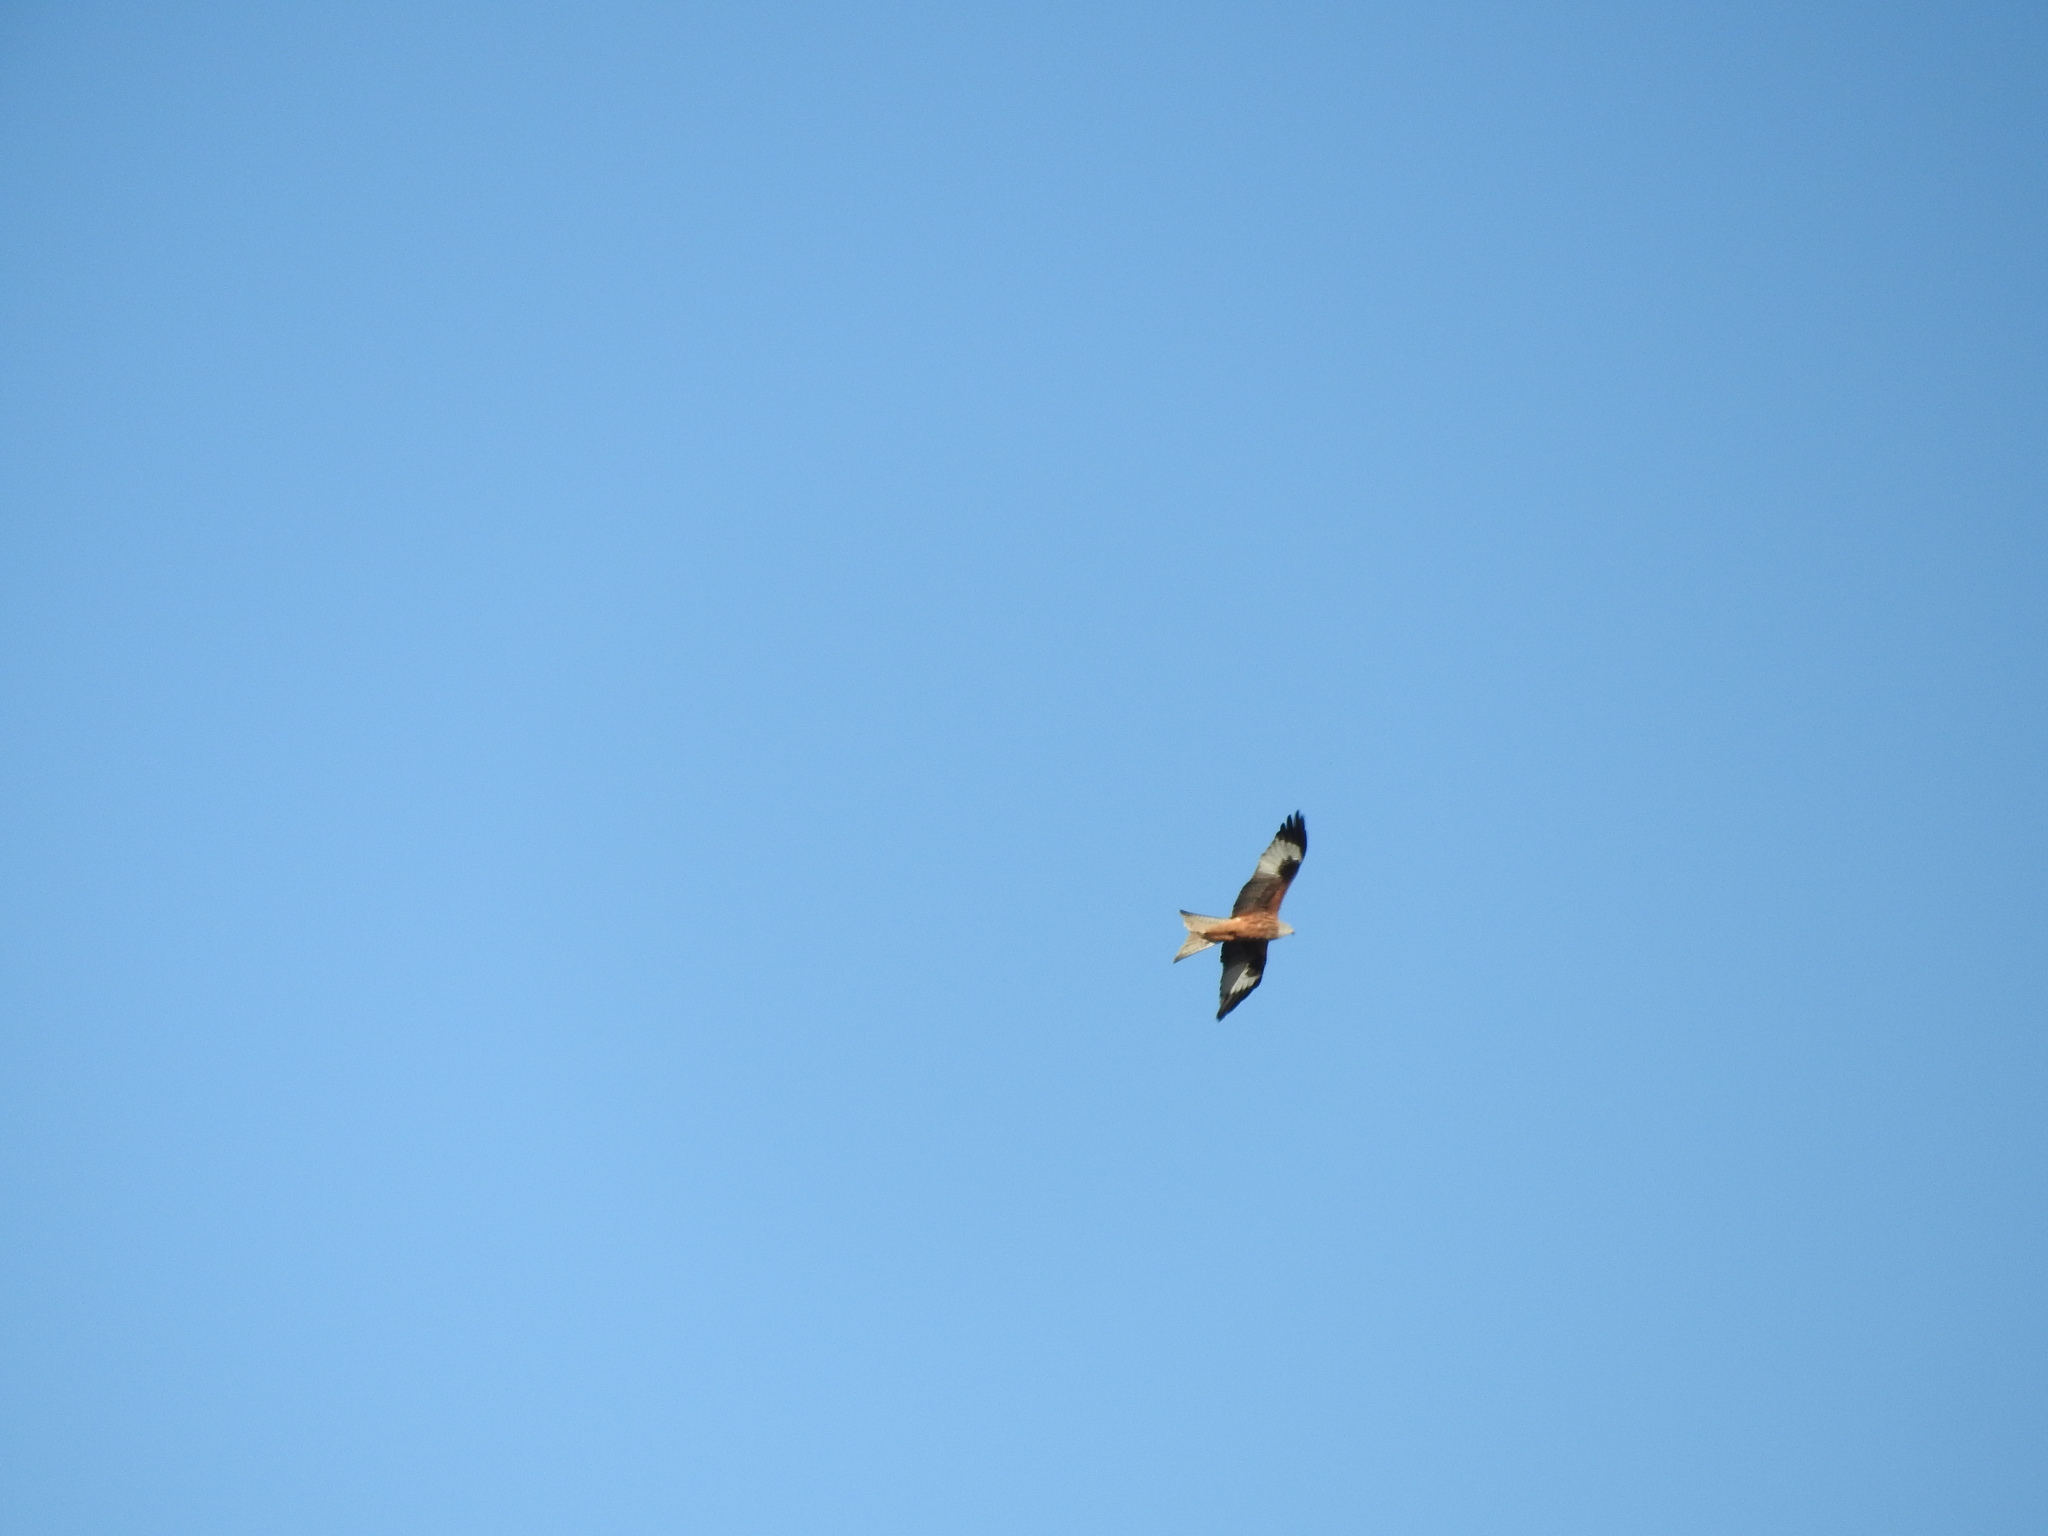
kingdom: Animalia
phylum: Chordata
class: Aves
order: Accipitriformes
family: Accipitridae
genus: Milvus
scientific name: Milvus milvus
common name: Red kite
